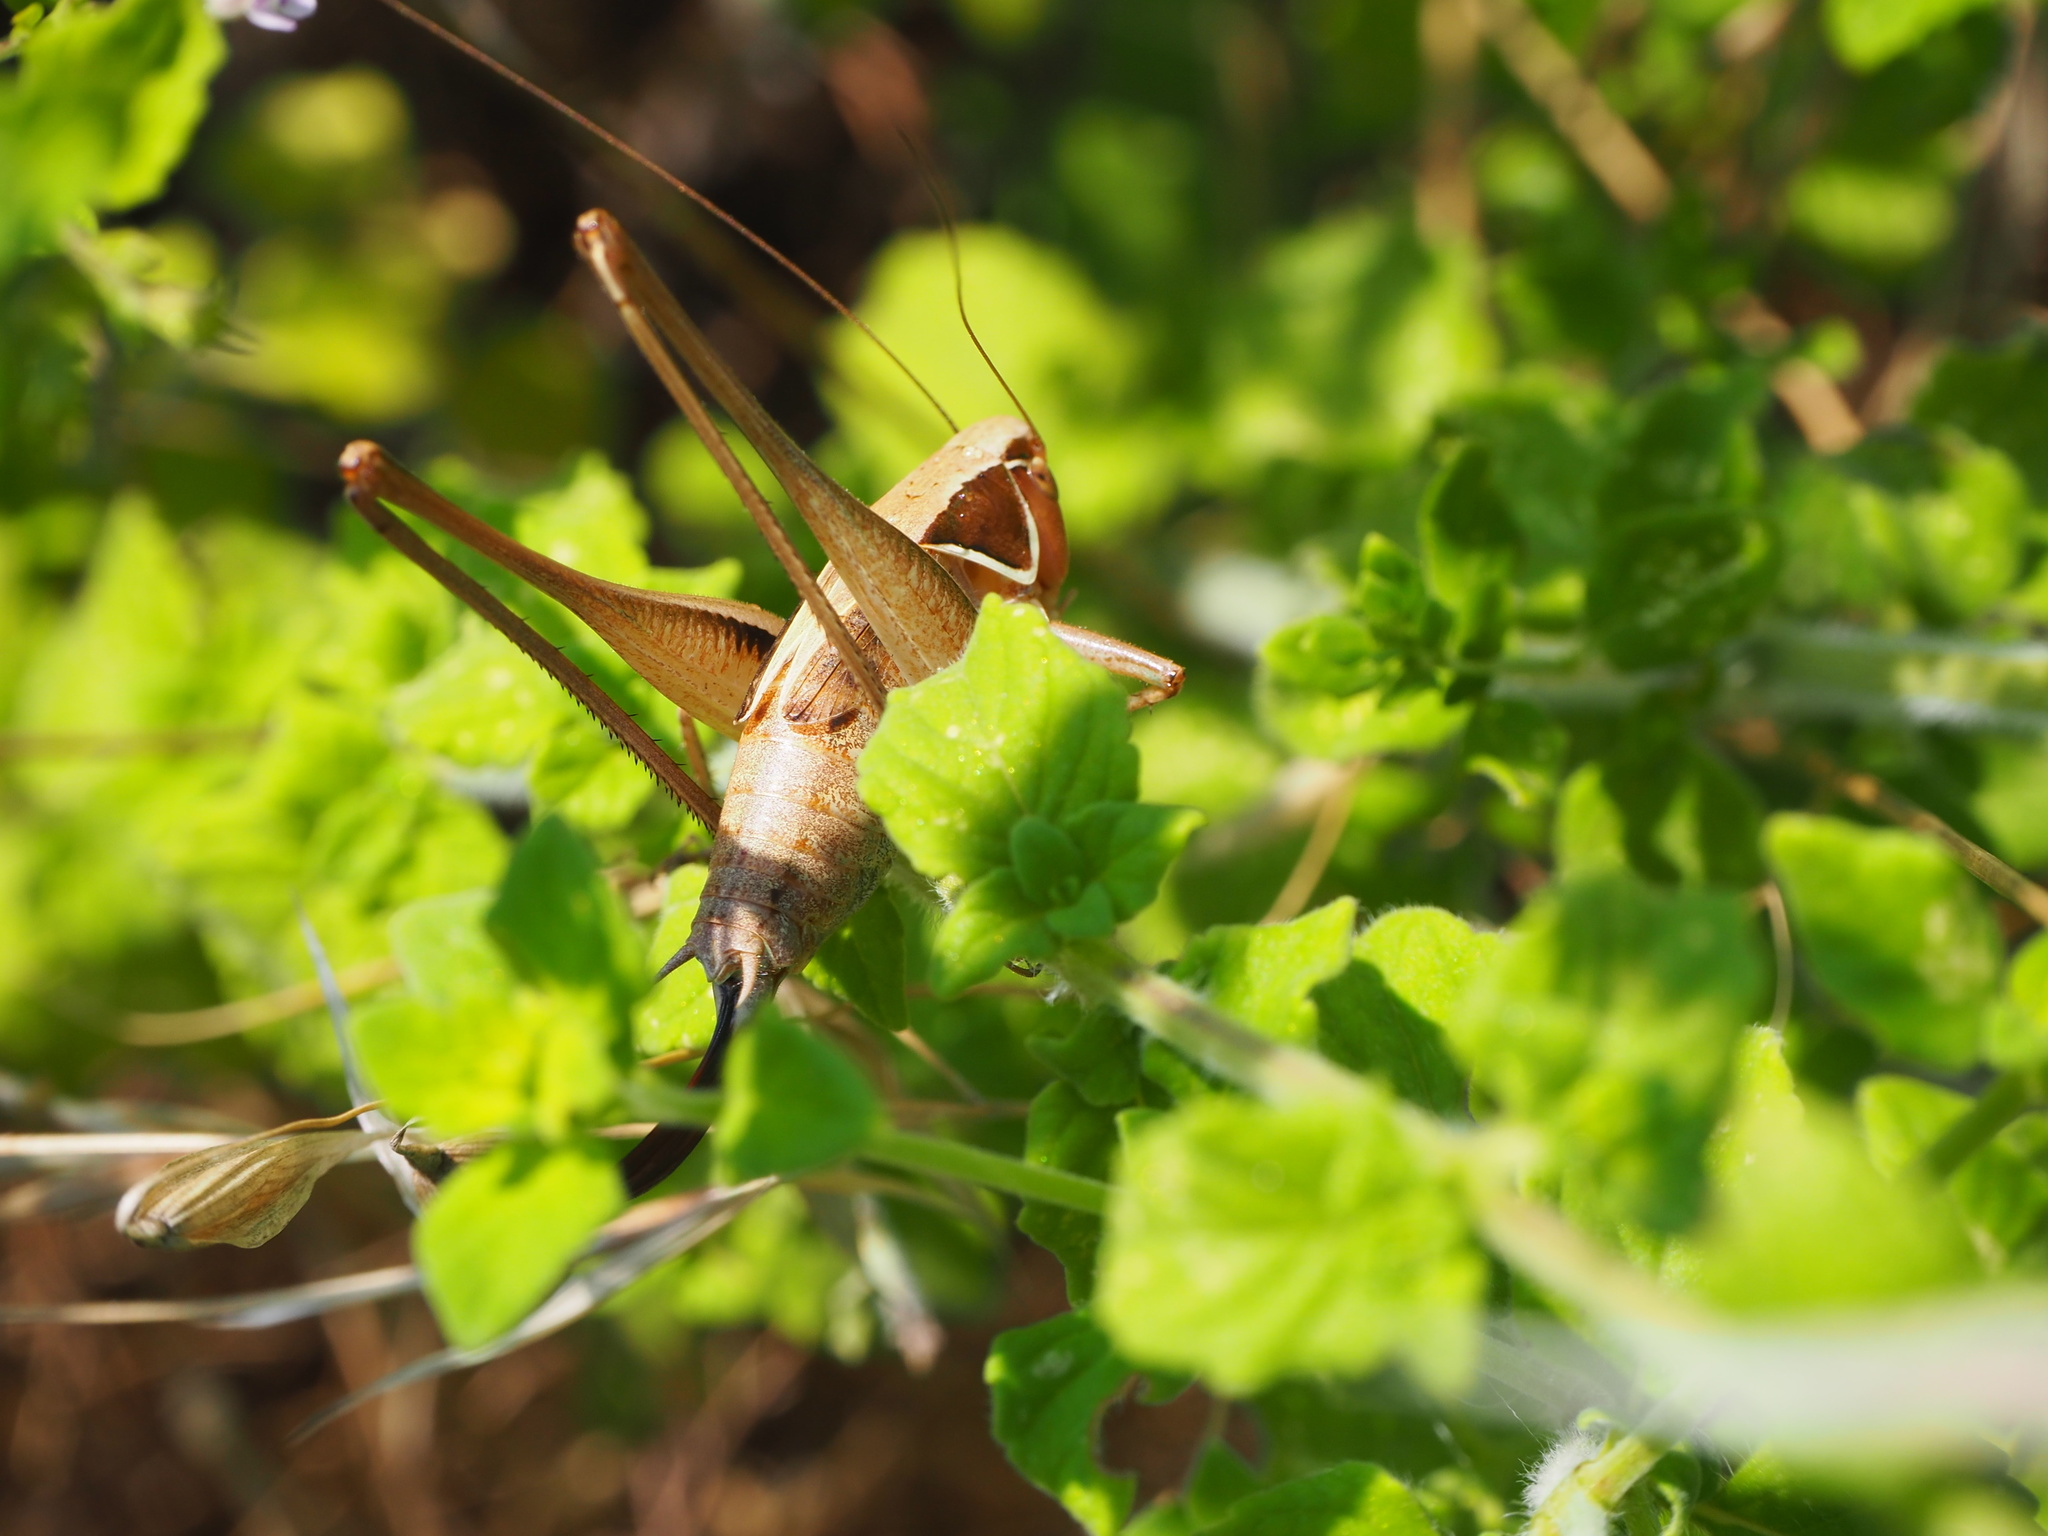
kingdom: Animalia
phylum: Arthropoda
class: Insecta
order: Orthoptera
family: Tettigoniidae
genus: Sepiana
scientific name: Sepiana sepium
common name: Sepia bush-cricket
